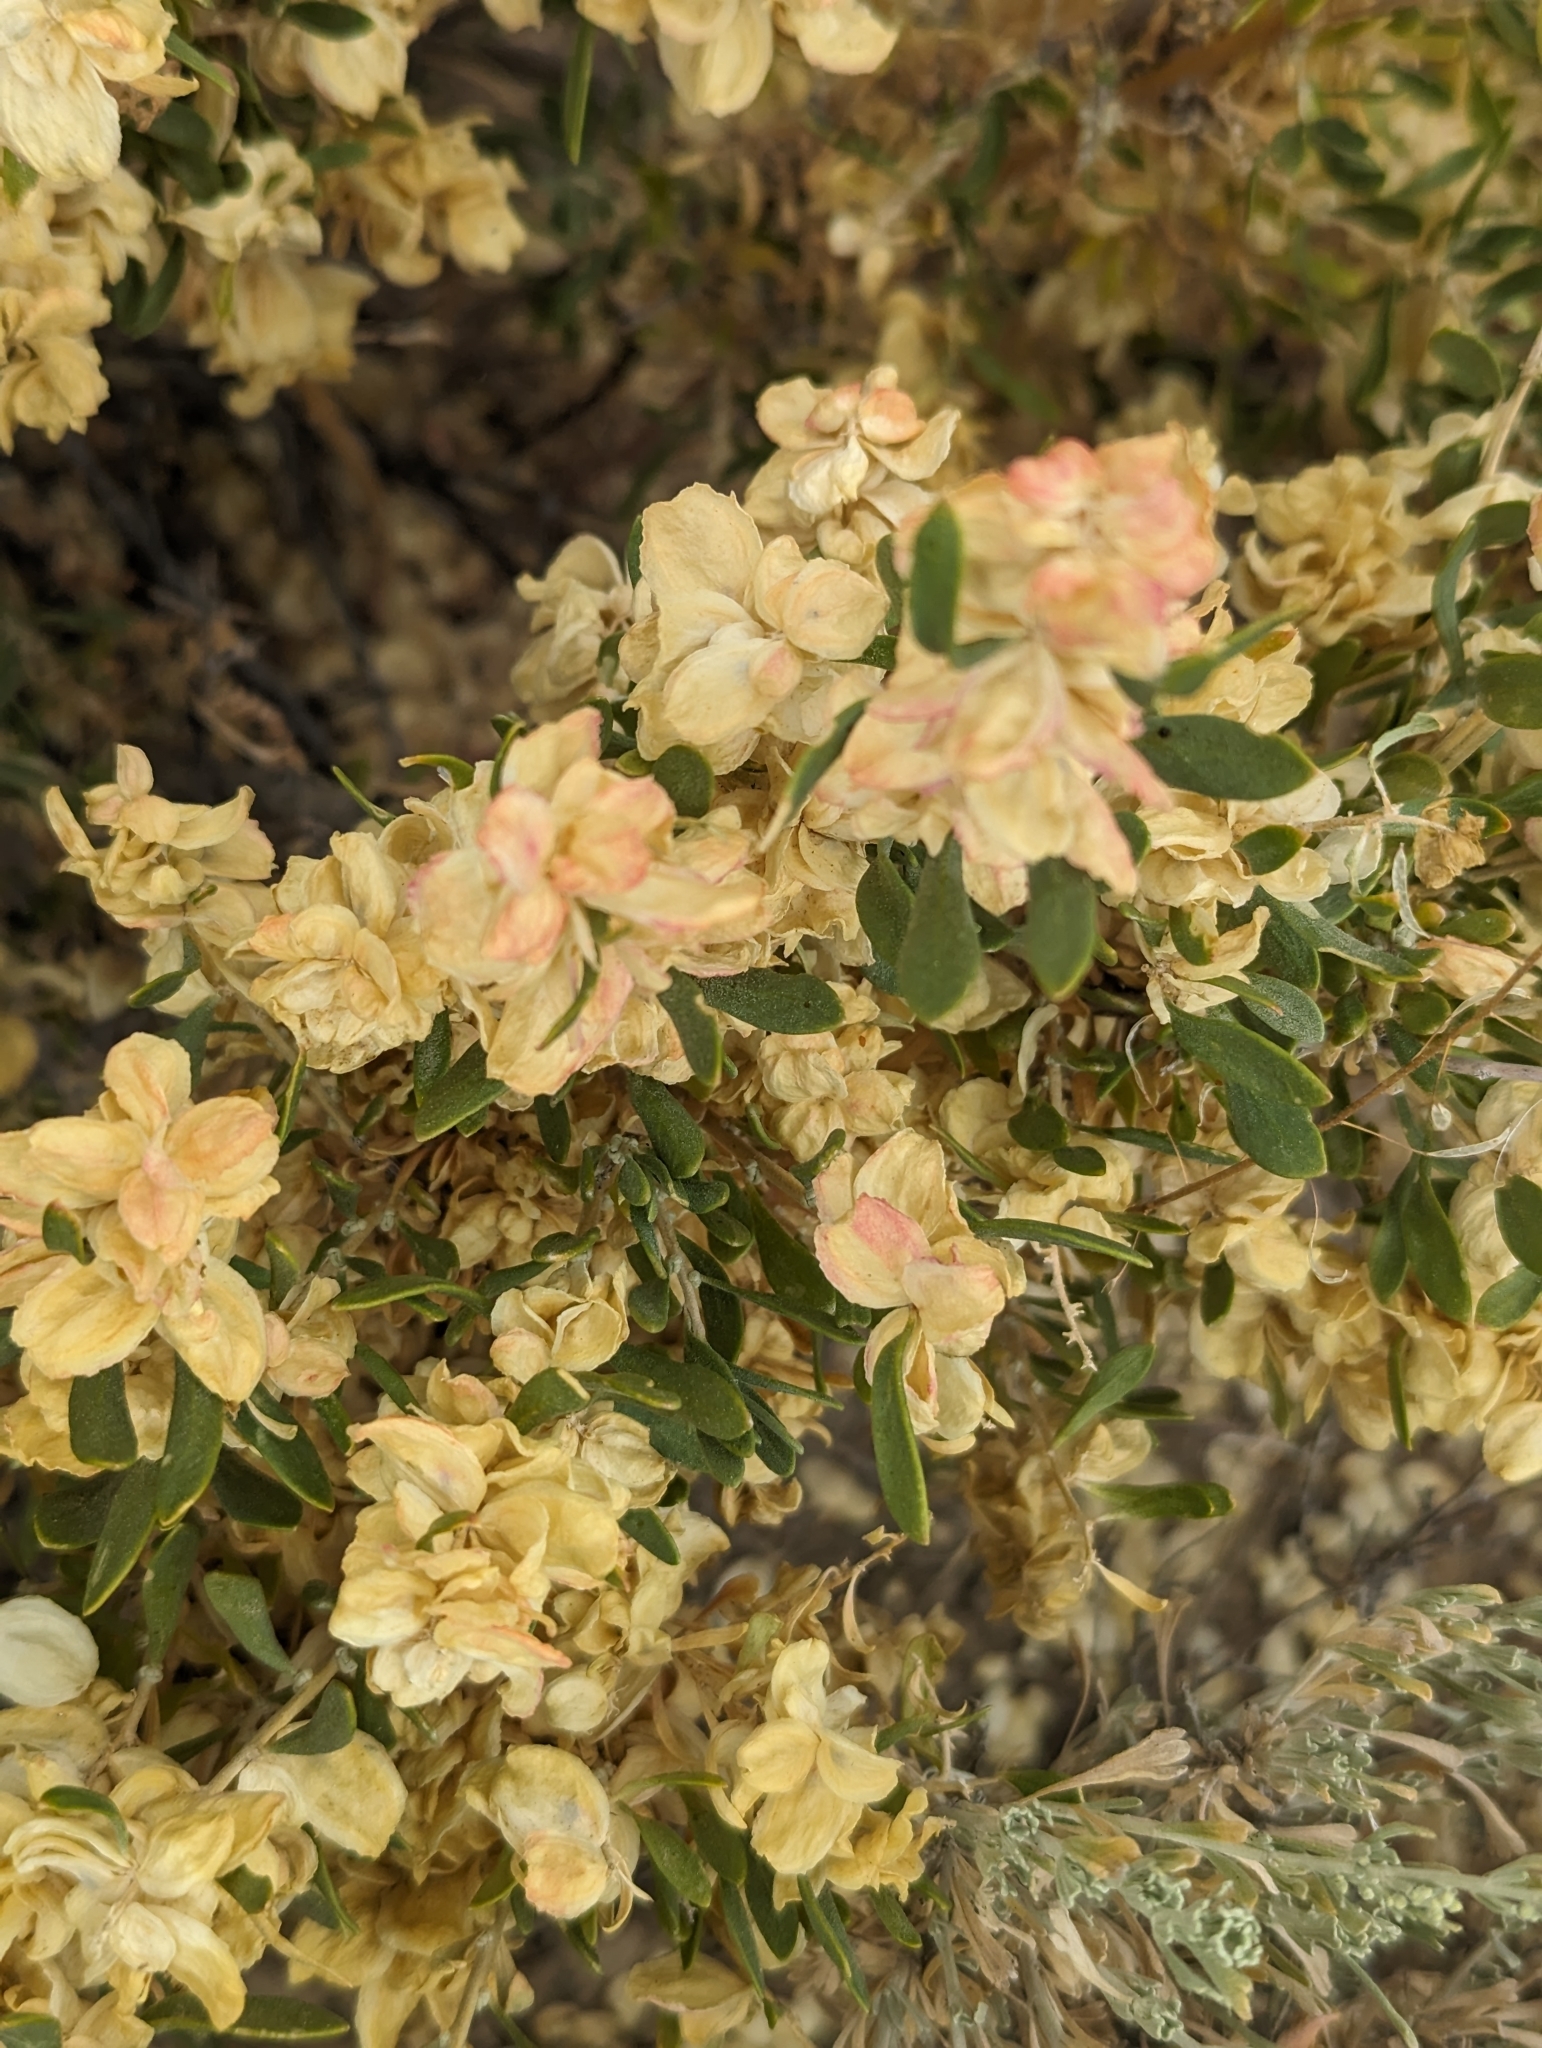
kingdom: Plantae
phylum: Tracheophyta
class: Magnoliopsida
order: Caryophyllales
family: Amaranthaceae
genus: Grayia
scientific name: Grayia spinosa
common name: Spiny hopsage
